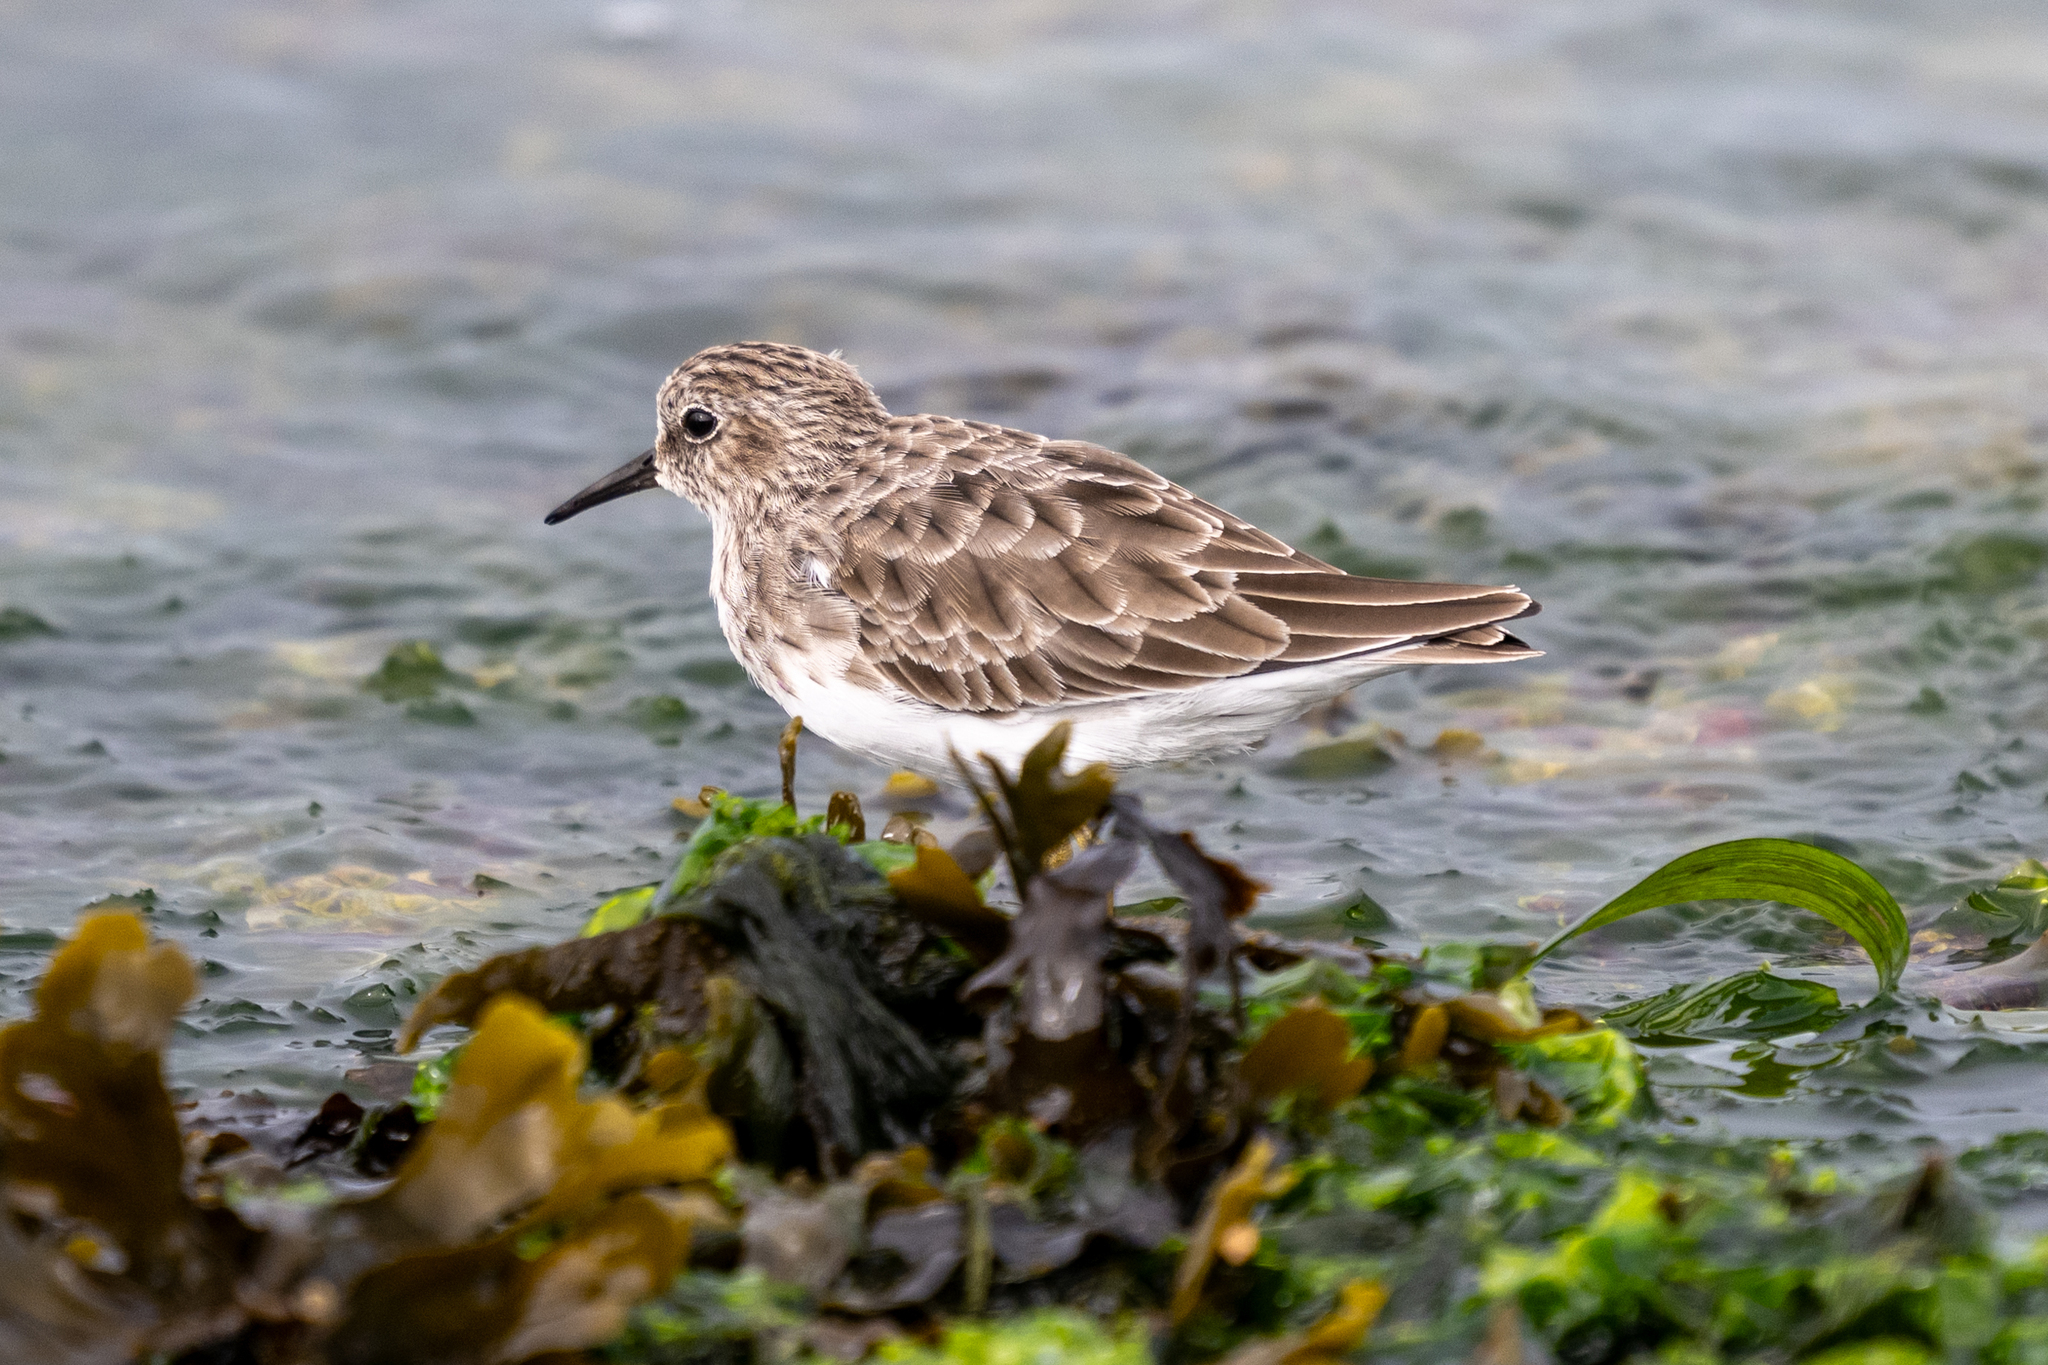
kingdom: Animalia
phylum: Chordata
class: Aves
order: Charadriiformes
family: Scolopacidae
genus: Calidris
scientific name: Calidris minutilla
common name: Least sandpiper
